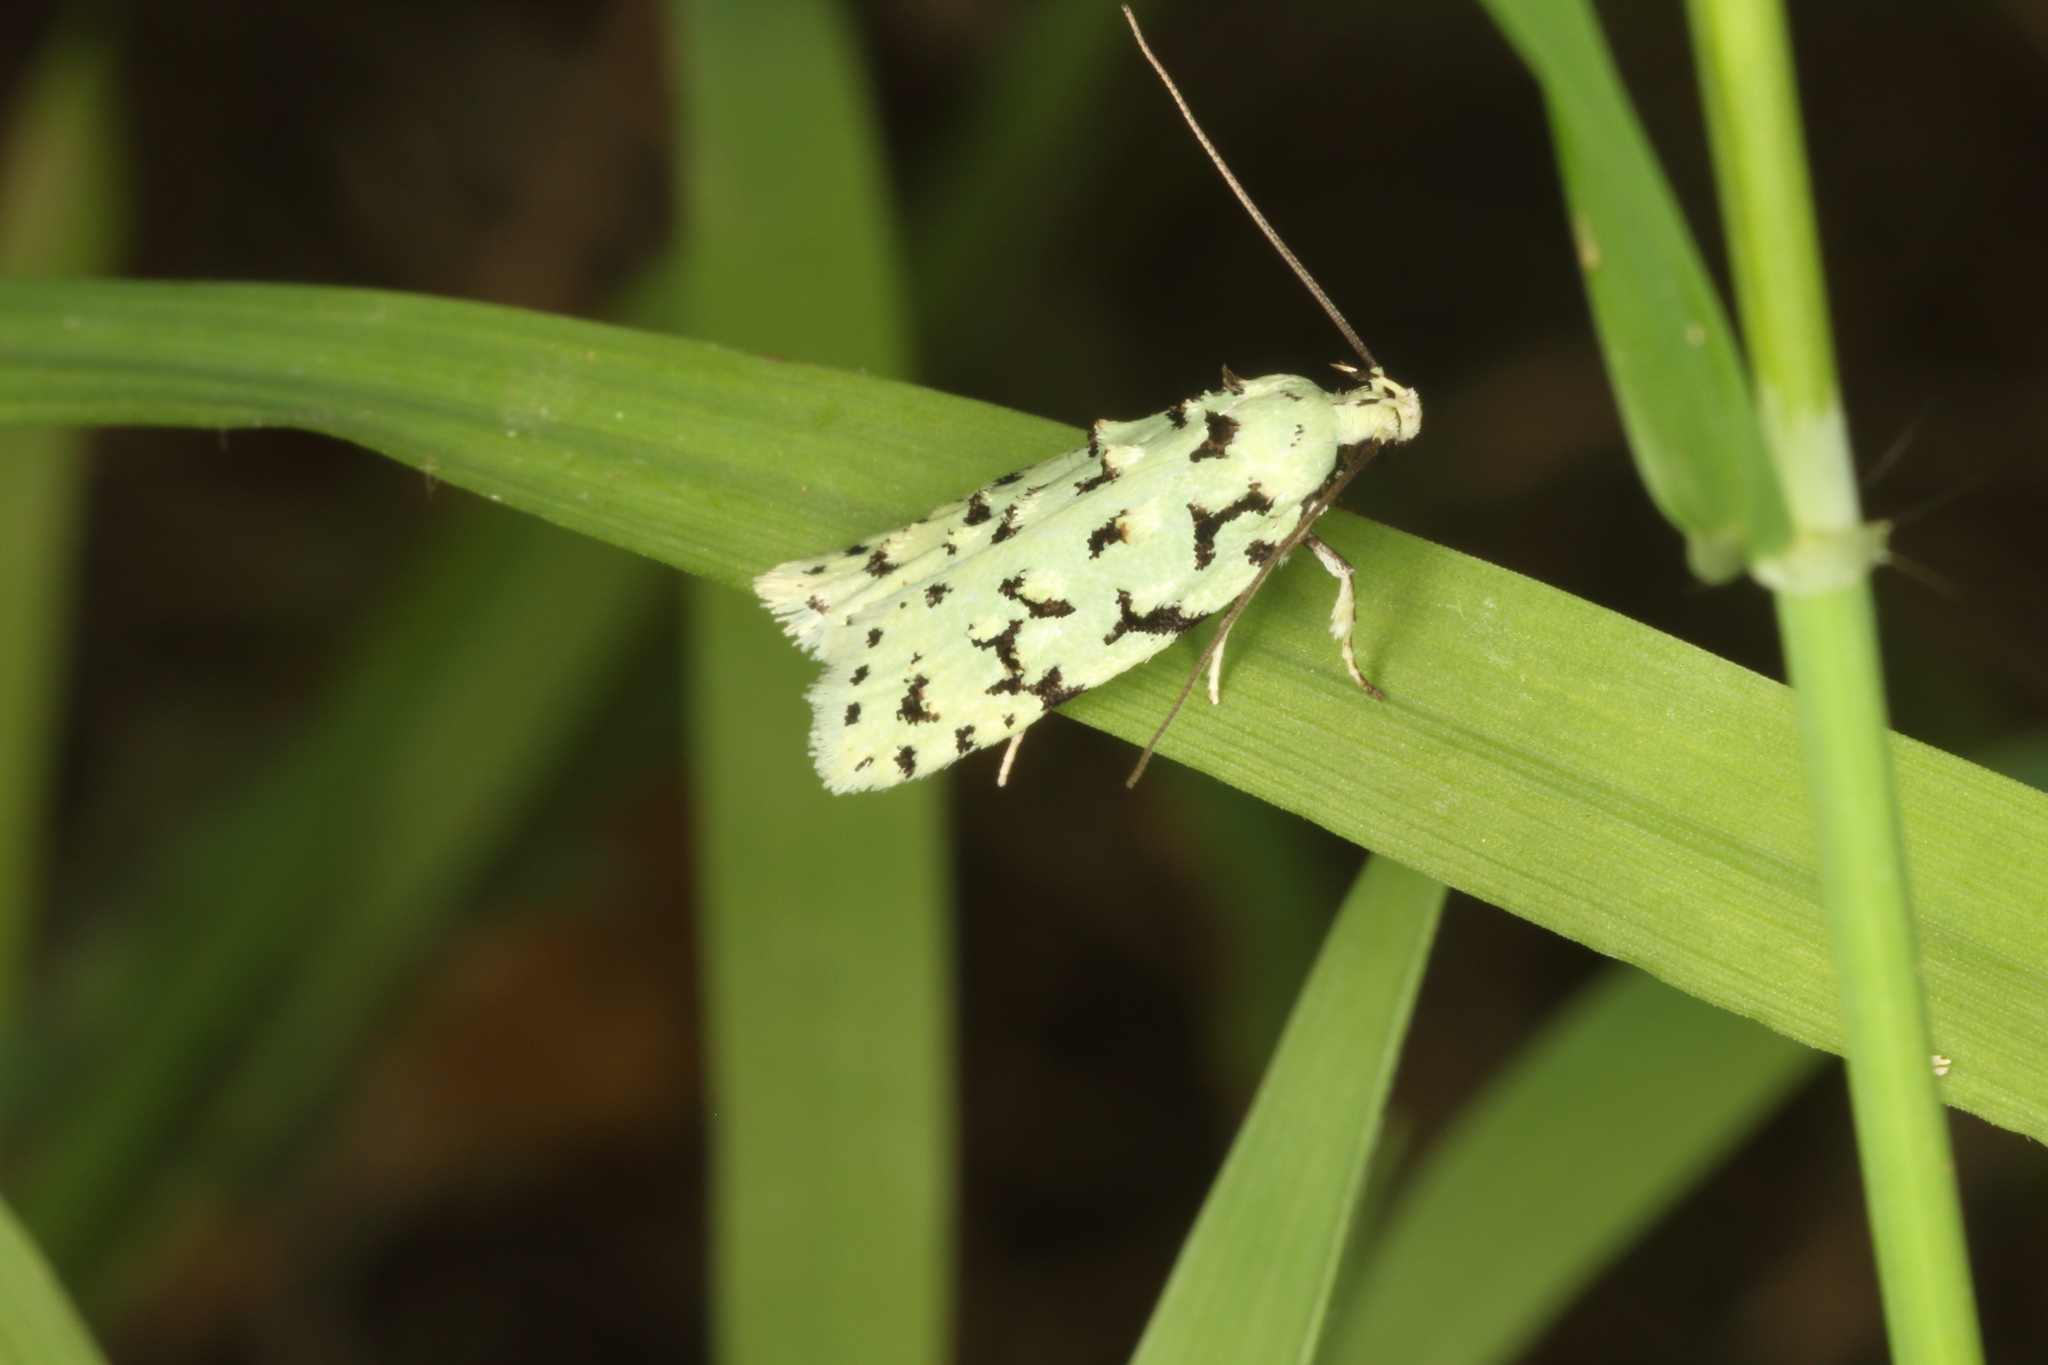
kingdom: Animalia
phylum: Arthropoda
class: Insecta
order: Lepidoptera
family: Oecophoridae
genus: Izatha
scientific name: Izatha huttoni
